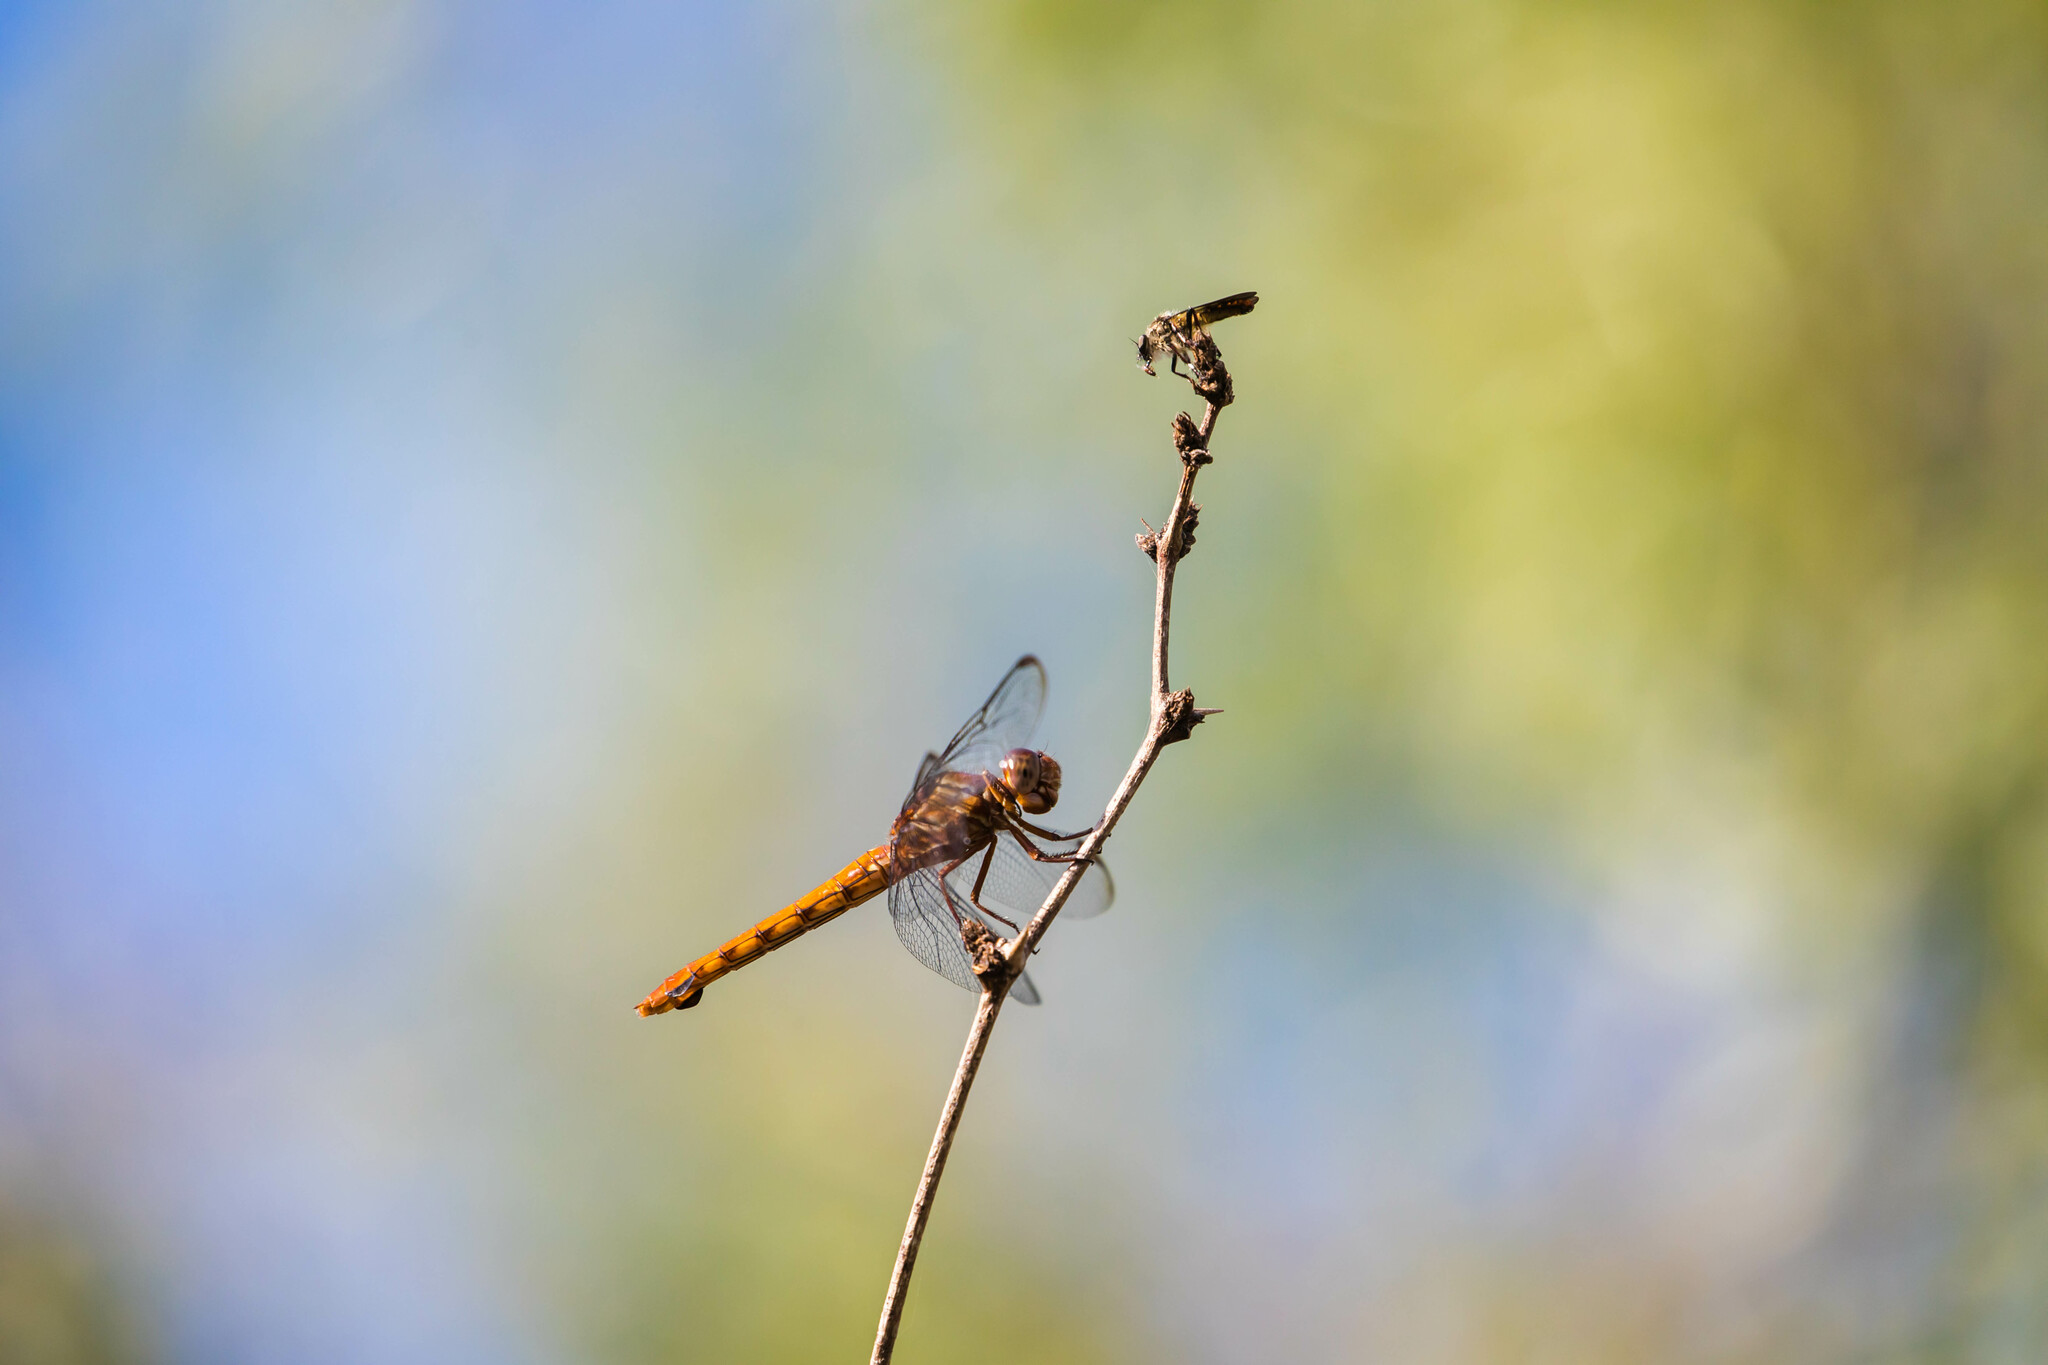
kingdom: Animalia
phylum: Arthropoda
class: Insecta
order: Odonata
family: Libellulidae
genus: Orthemis
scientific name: Orthemis discolor
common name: Carmine skimmer
